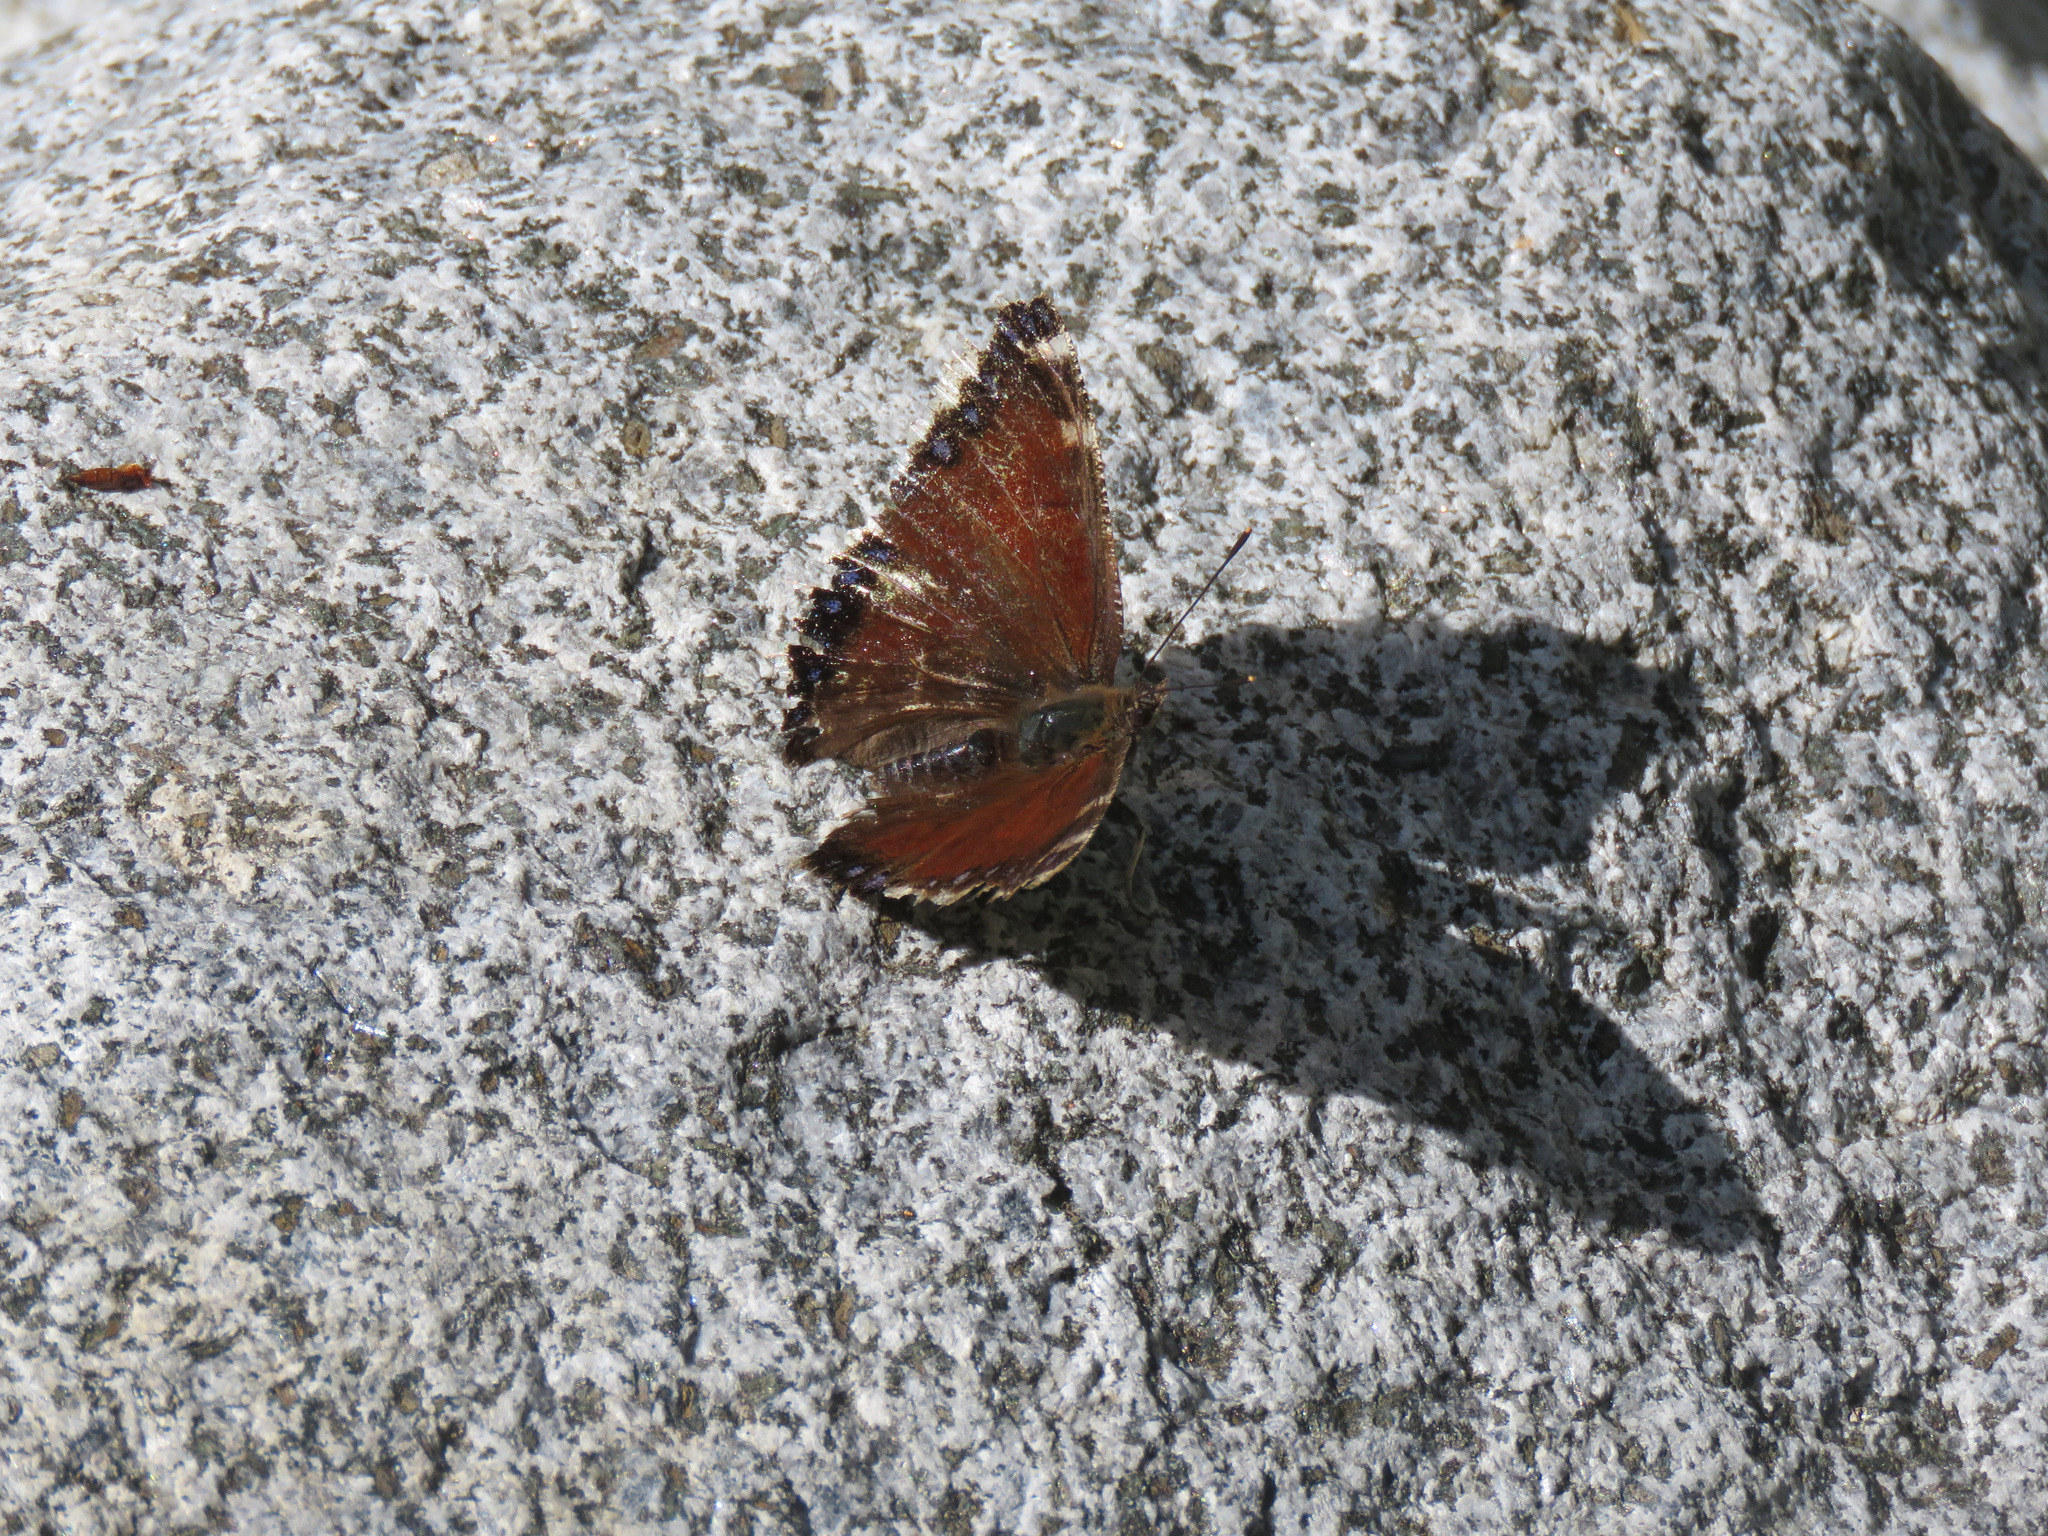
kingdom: Animalia
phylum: Arthropoda
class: Insecta
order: Lepidoptera
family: Nymphalidae
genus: Nymphalis
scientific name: Nymphalis antiopa
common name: Camberwell beauty
